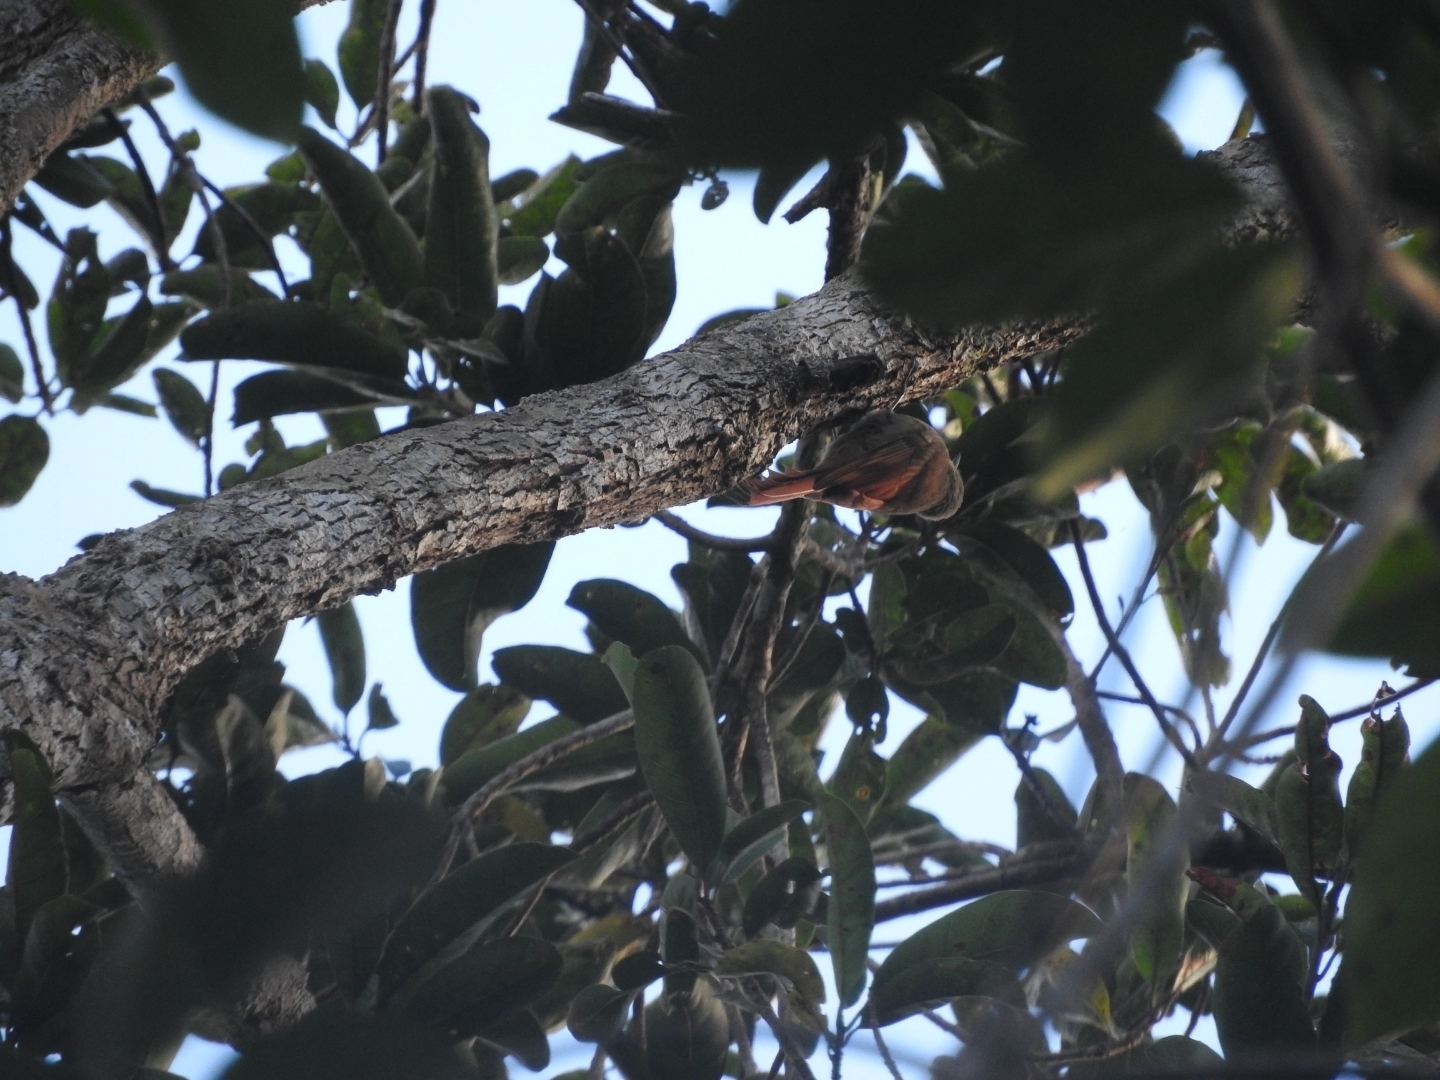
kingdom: Animalia
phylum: Chordata
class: Aves
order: Passeriformes
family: Furnariidae
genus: Sittasomus
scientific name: Sittasomus griseicapillus
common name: Olivaceous woodcreeper
